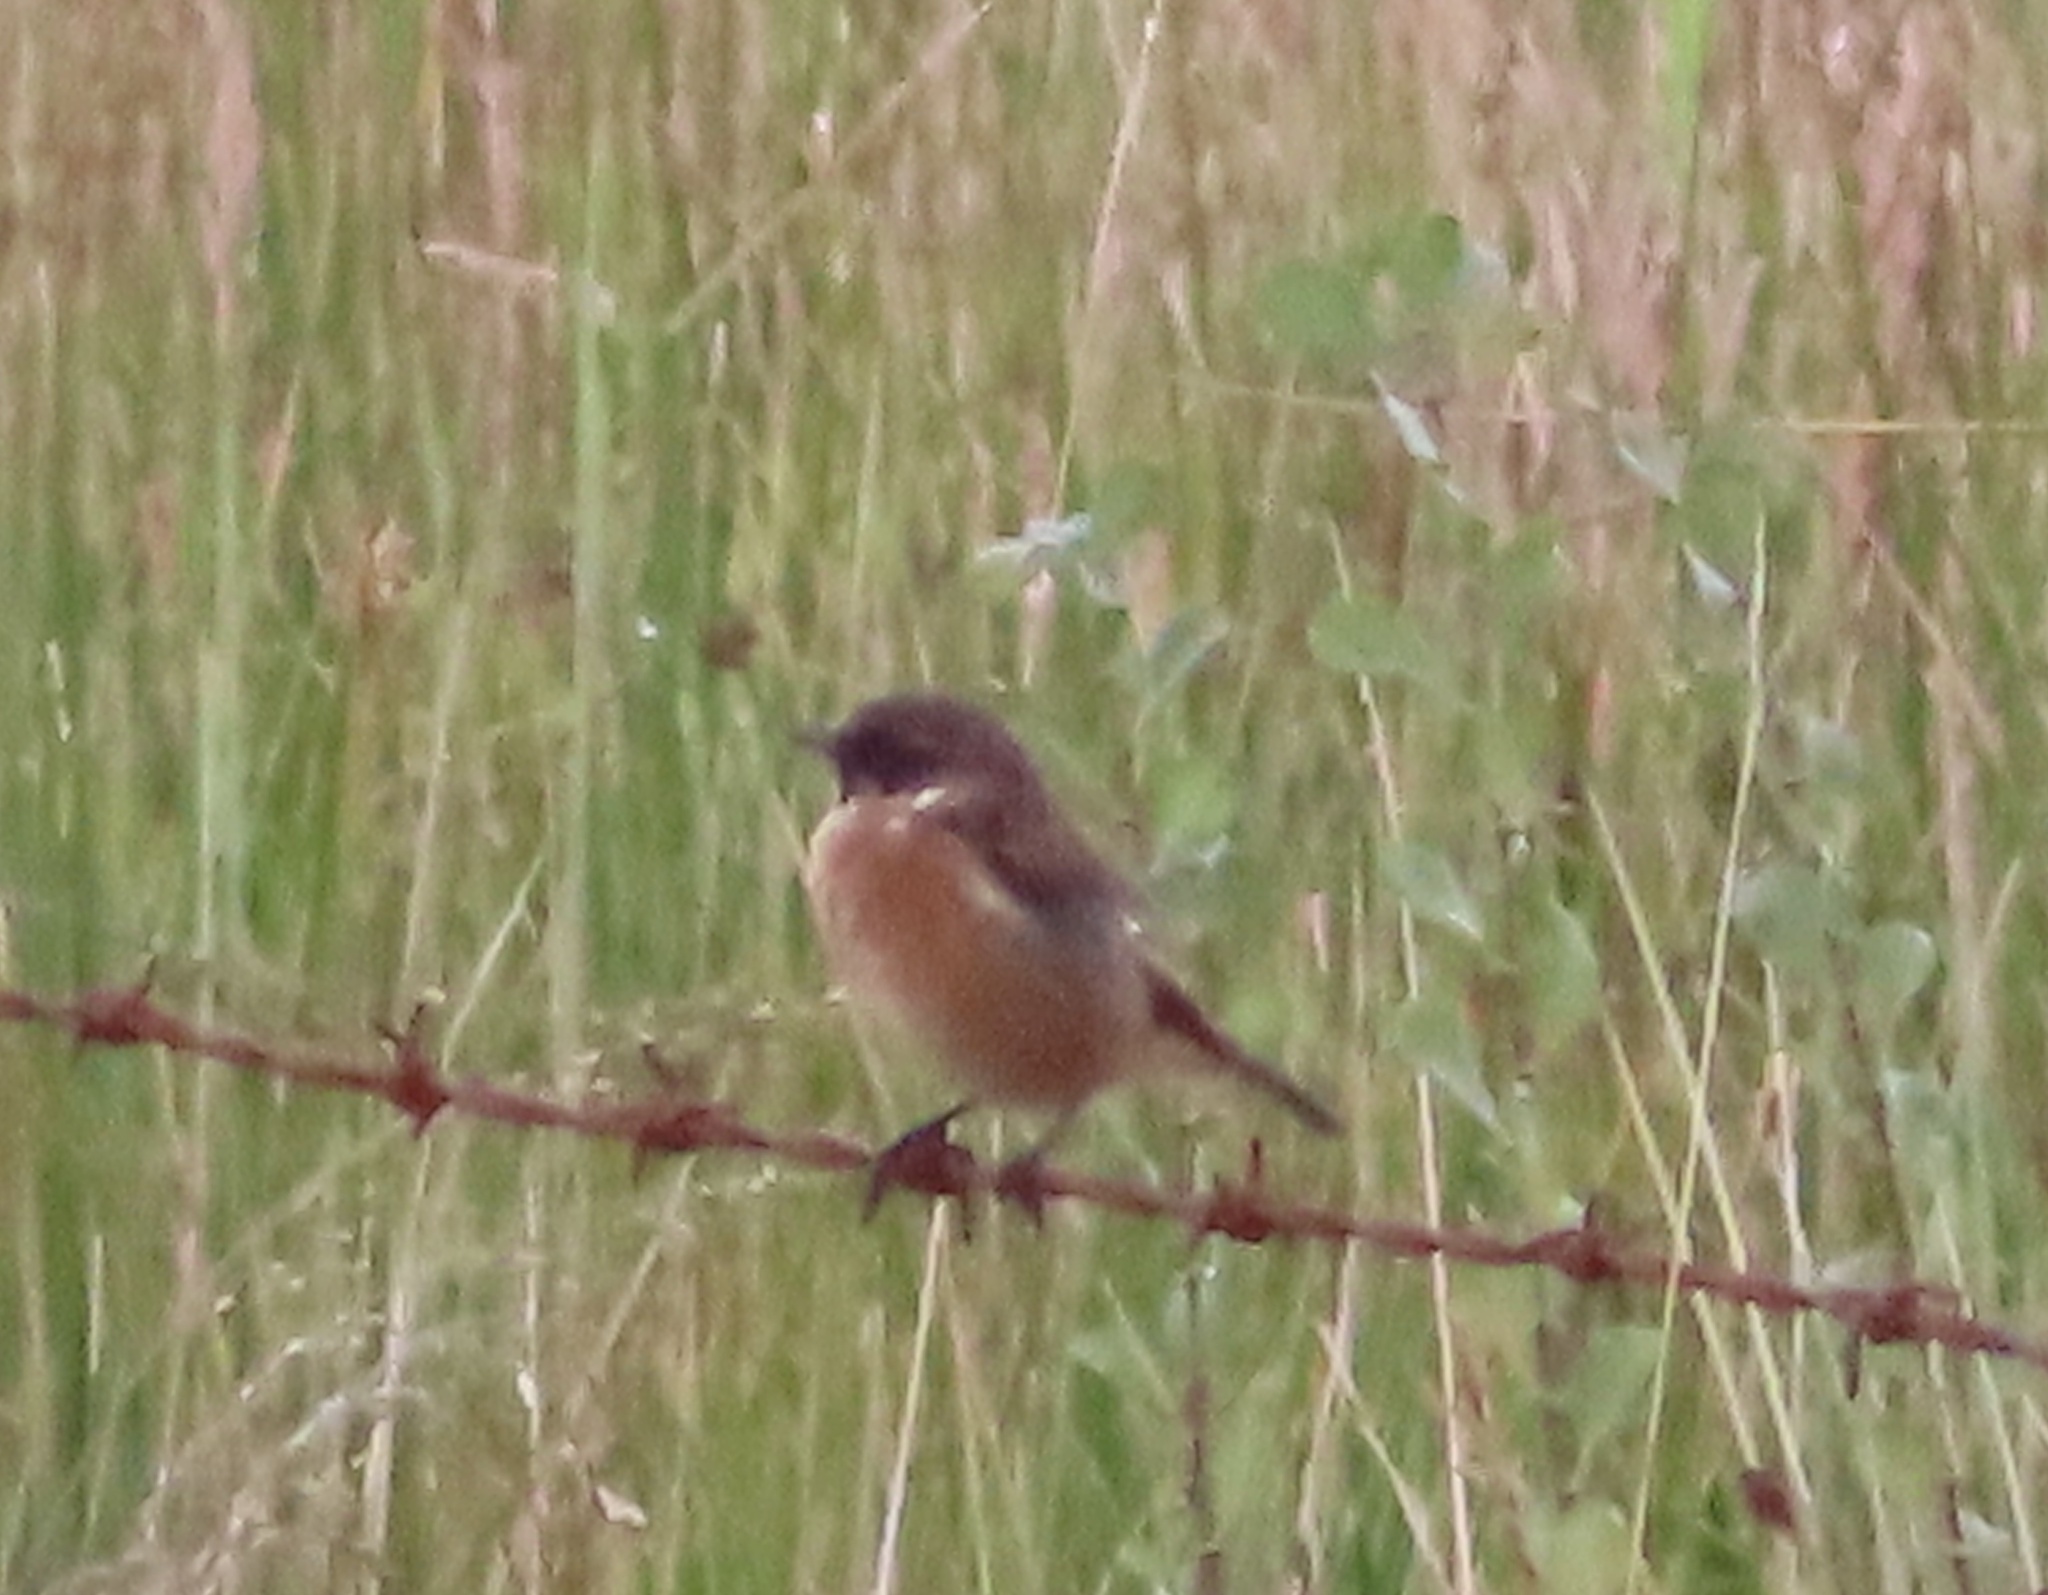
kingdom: Animalia
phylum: Chordata
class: Aves
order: Passeriformes
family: Muscicapidae
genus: Saxicola
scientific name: Saxicola rubicola
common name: European stonechat
